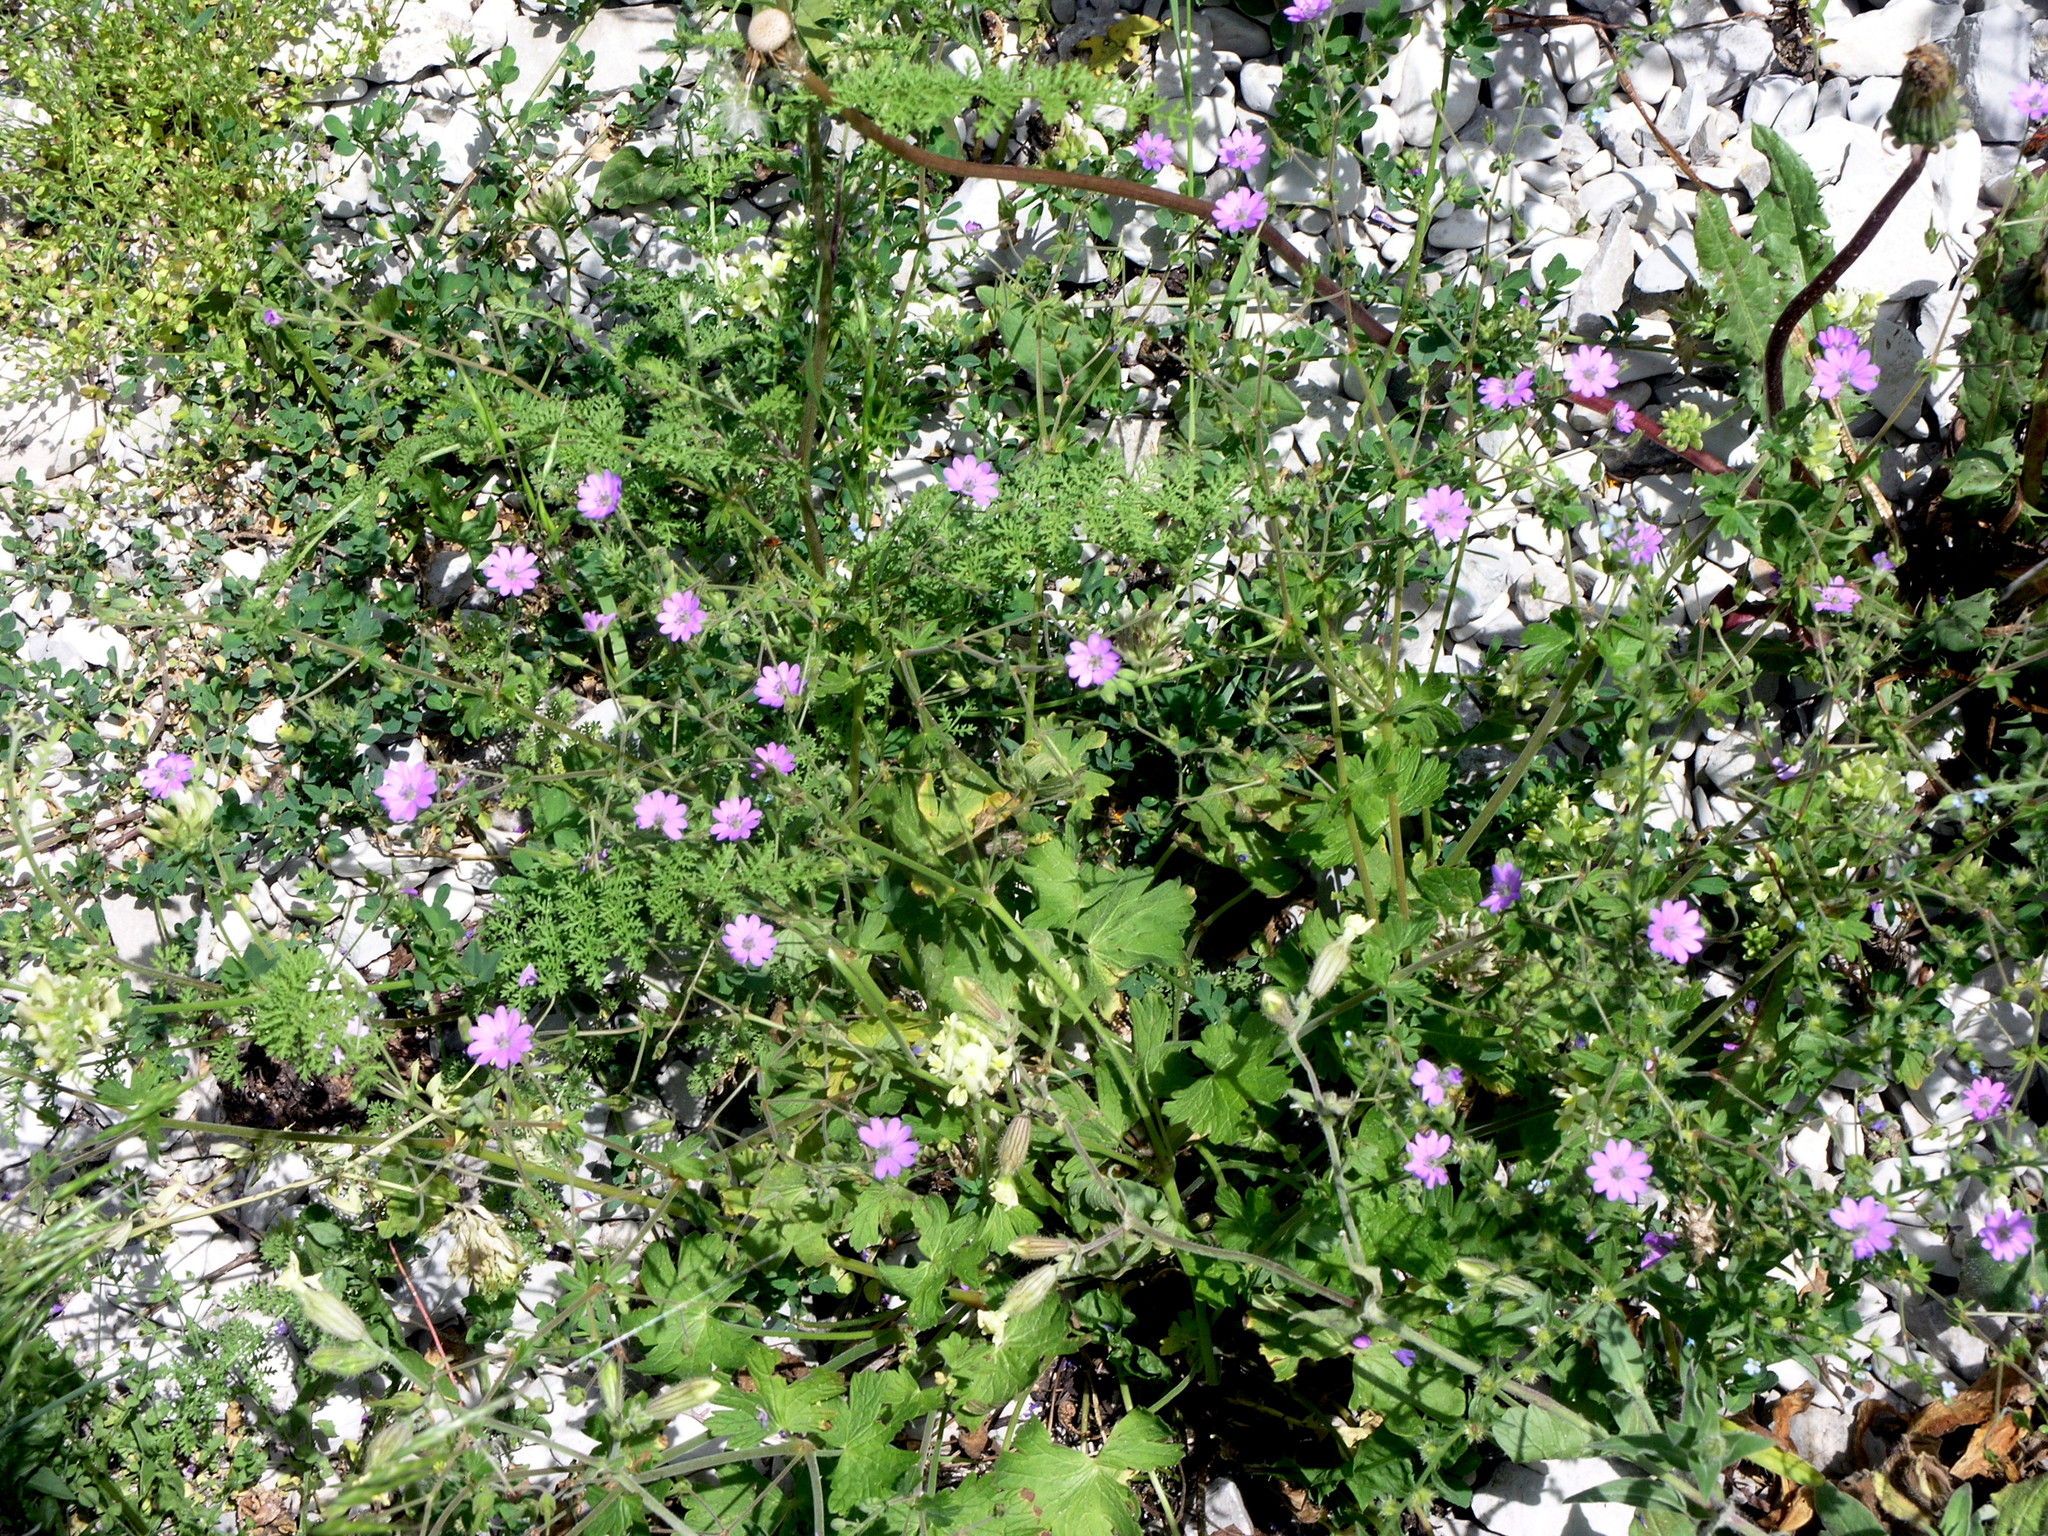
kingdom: Plantae
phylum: Tracheophyta
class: Magnoliopsida
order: Geraniales
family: Geraniaceae
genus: Geranium
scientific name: Geranium pyrenaicum
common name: Hedgerow crane's-bill
